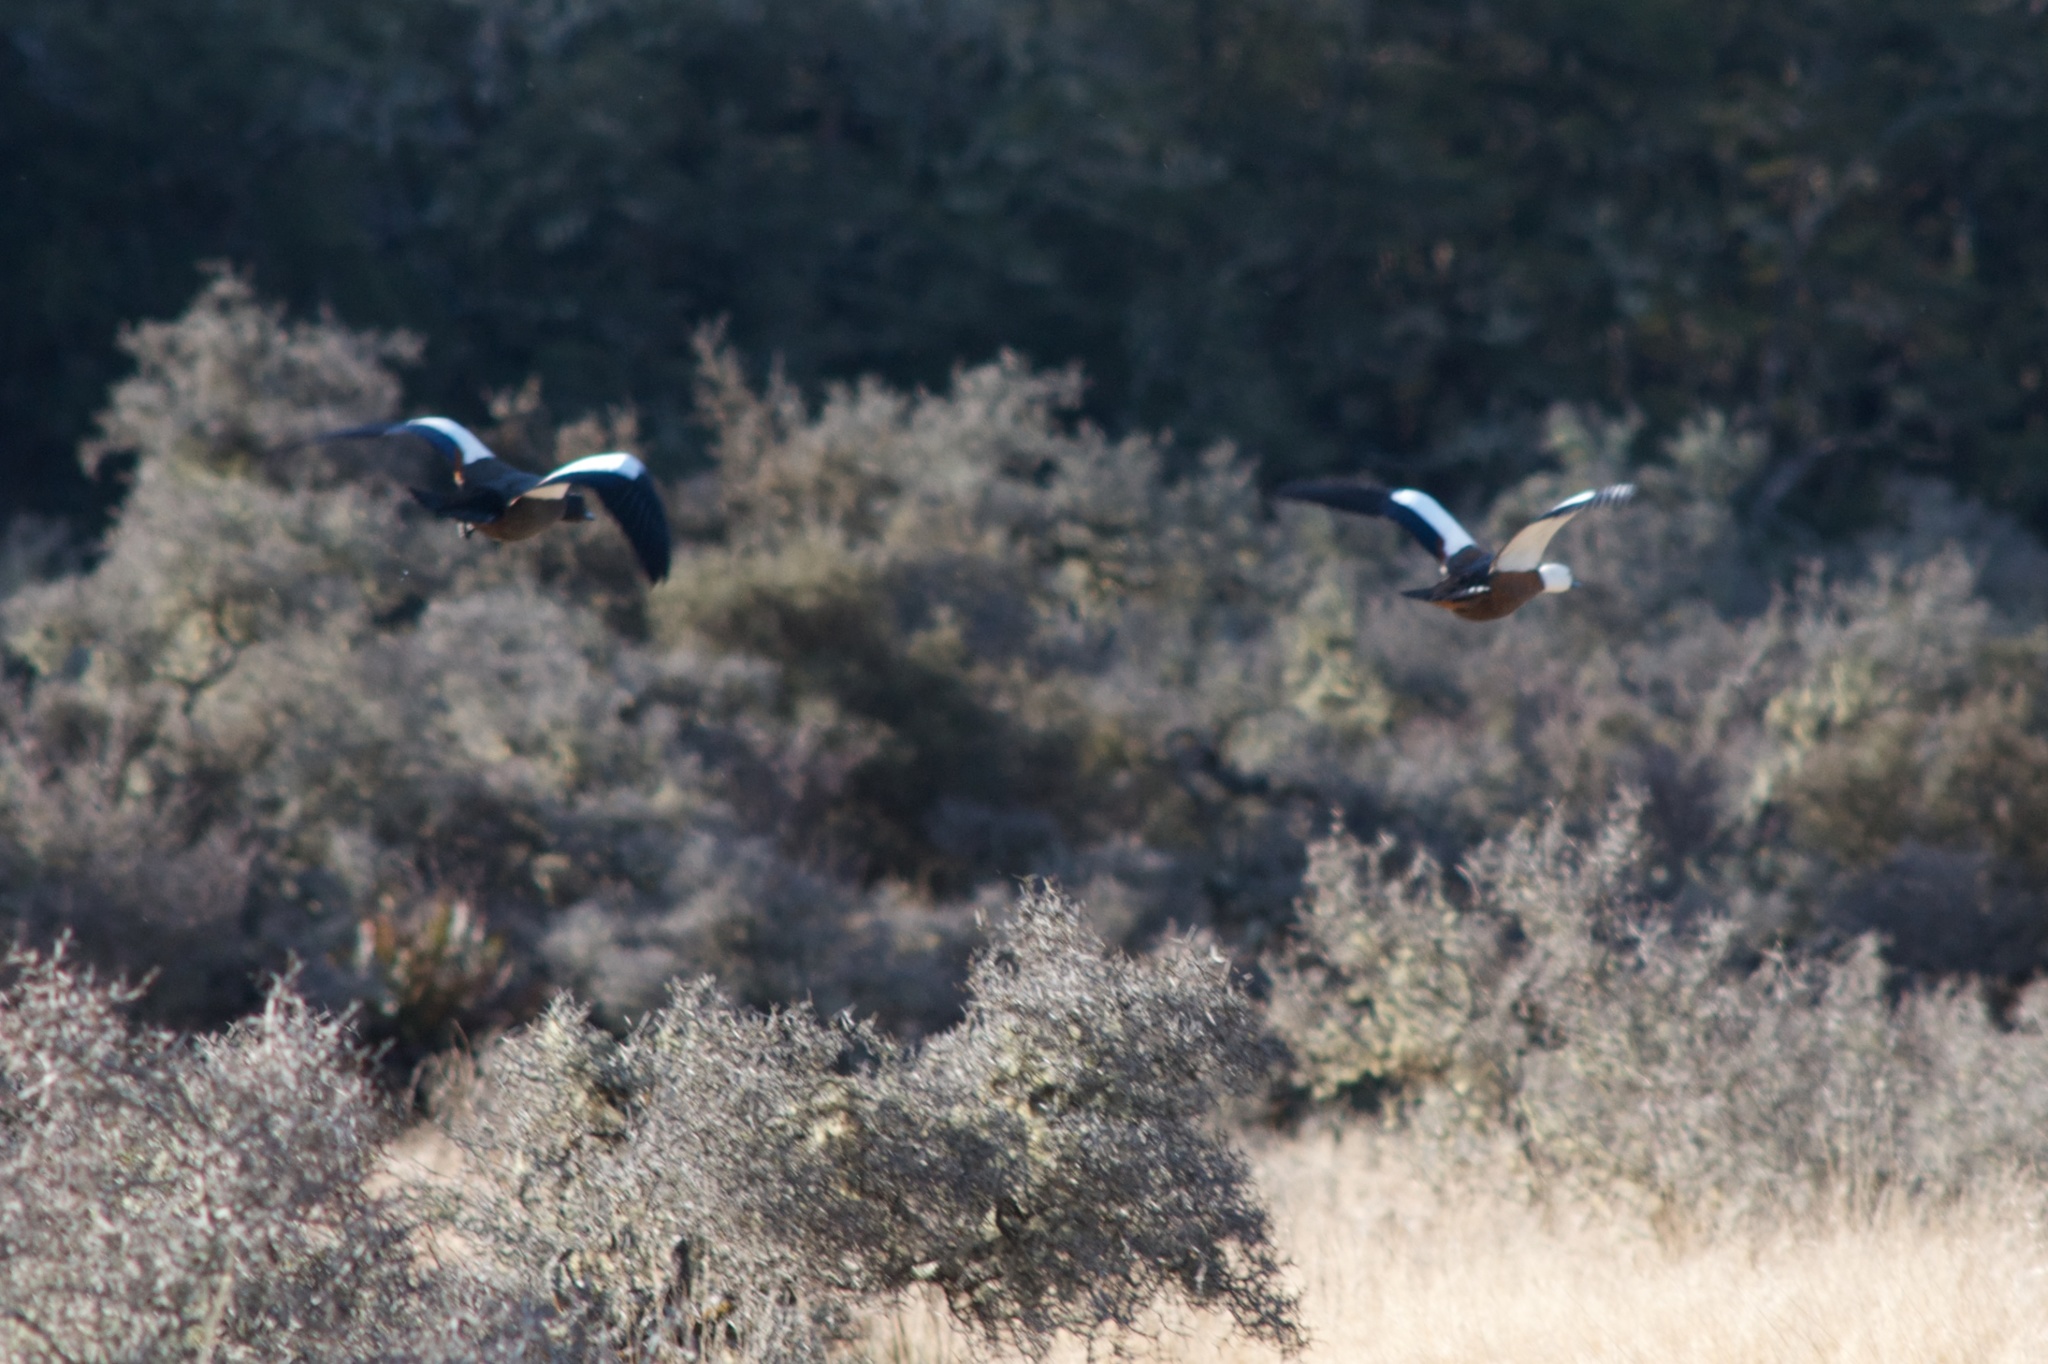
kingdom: Animalia
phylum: Chordata
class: Aves
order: Anseriformes
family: Anatidae
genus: Tadorna
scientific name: Tadorna variegata
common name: Paradise shelduck
